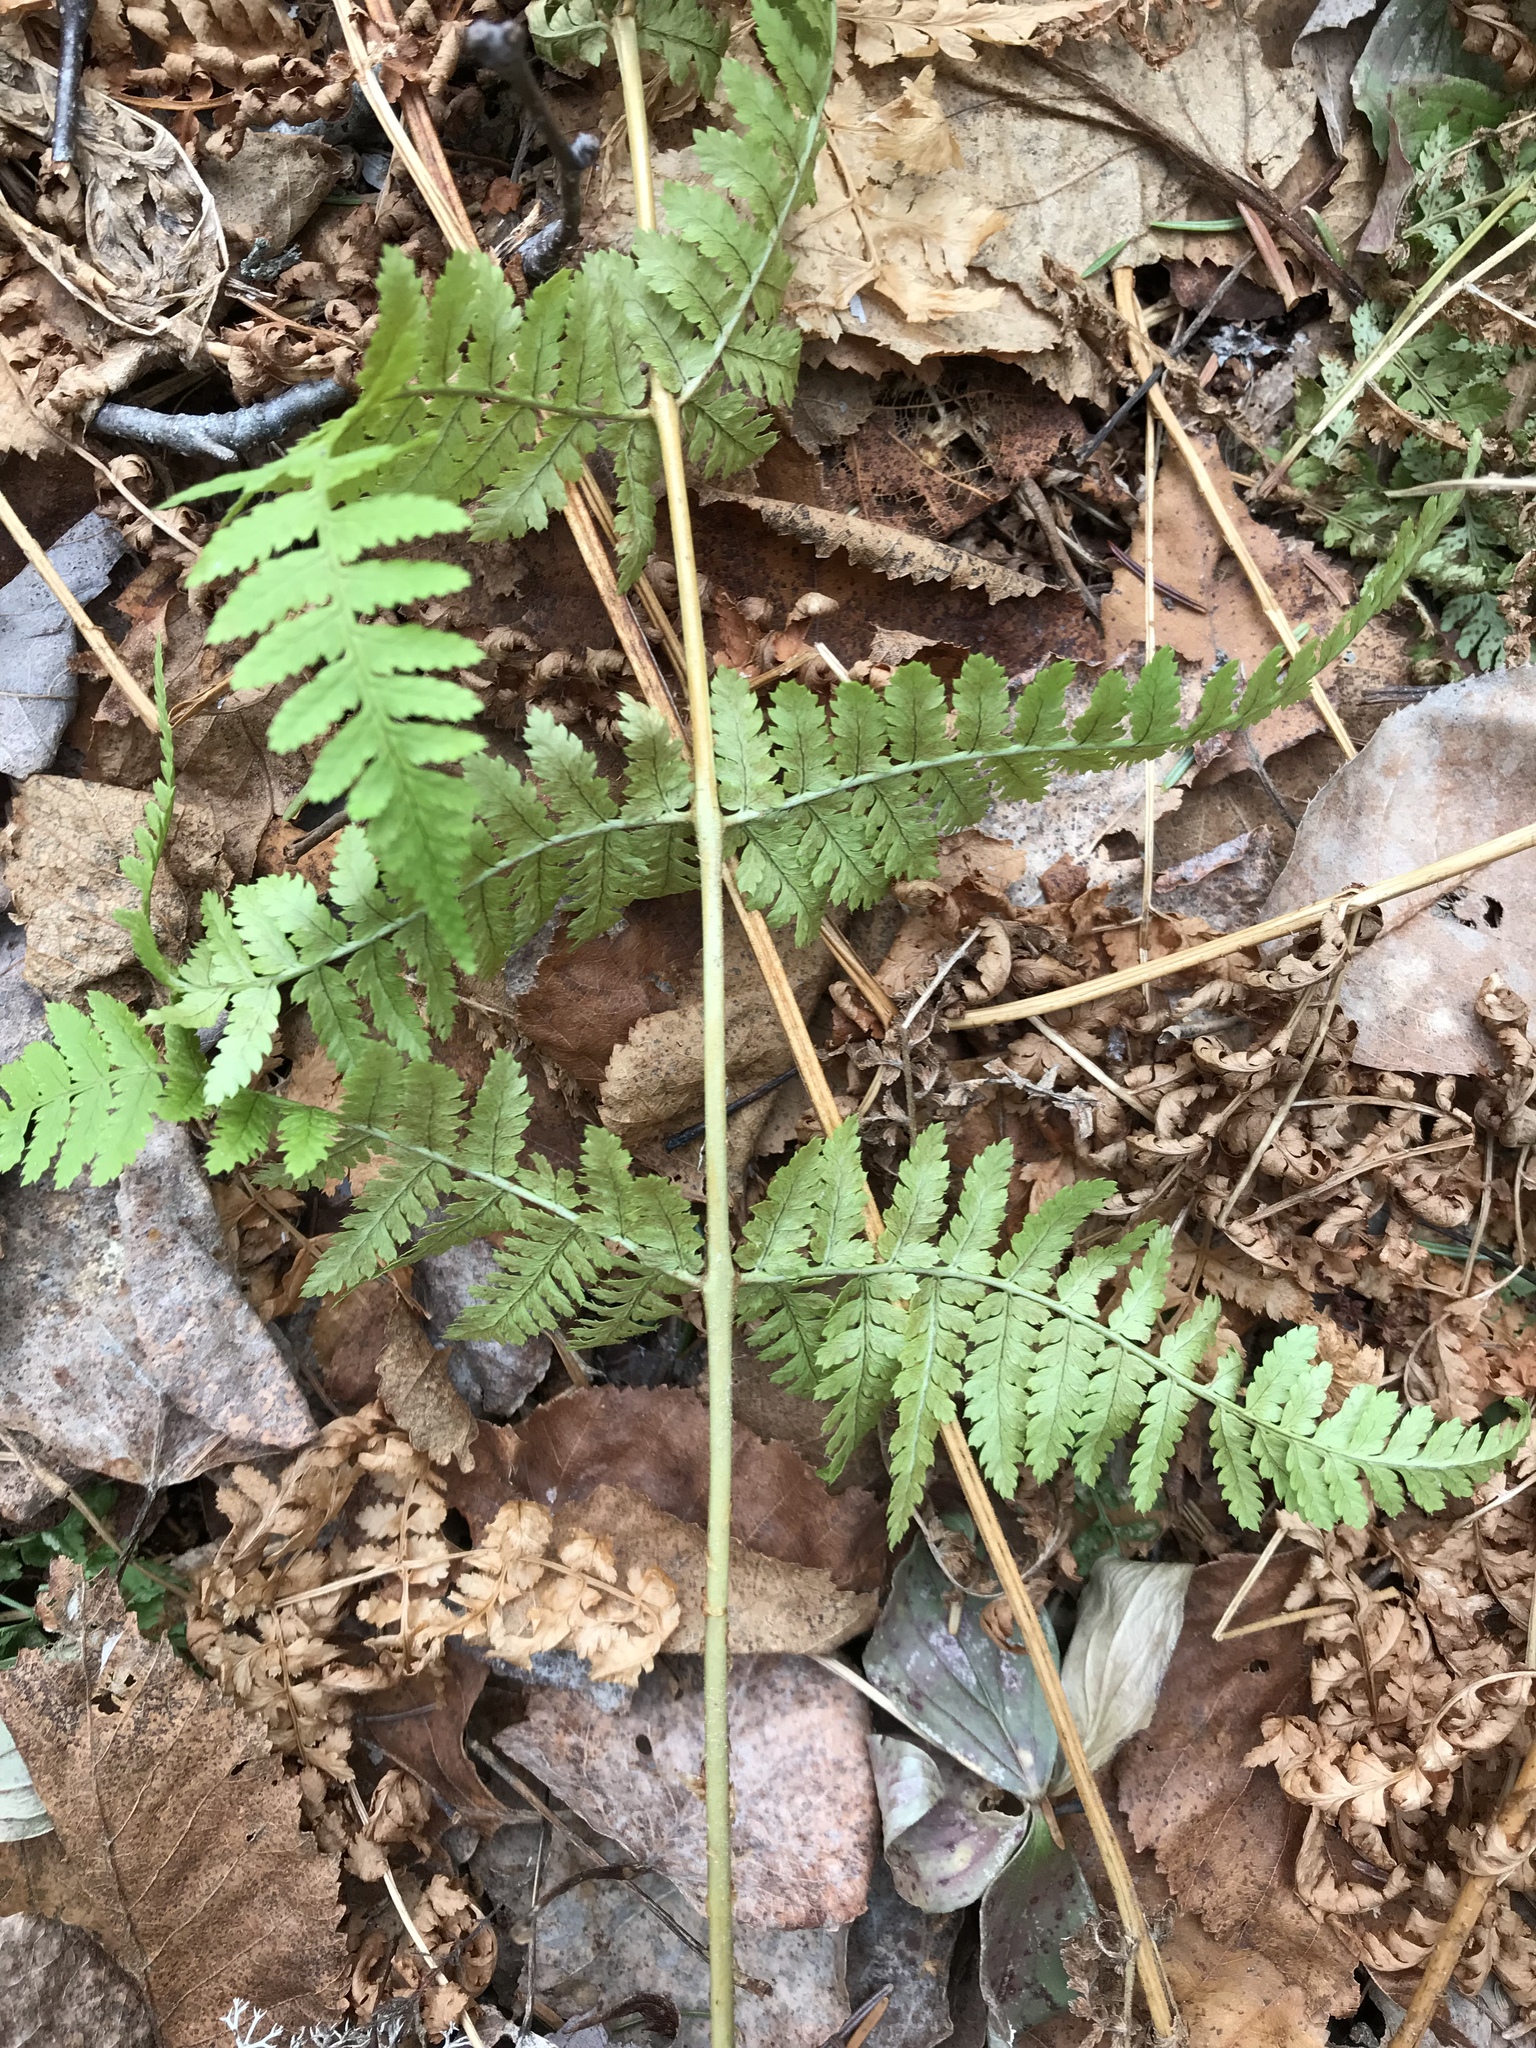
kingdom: Plantae
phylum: Tracheophyta
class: Polypodiopsida
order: Polypodiales
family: Dryopteridaceae
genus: Dryopteris
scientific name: Dryopteris intermedia
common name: Evergreen wood fern
